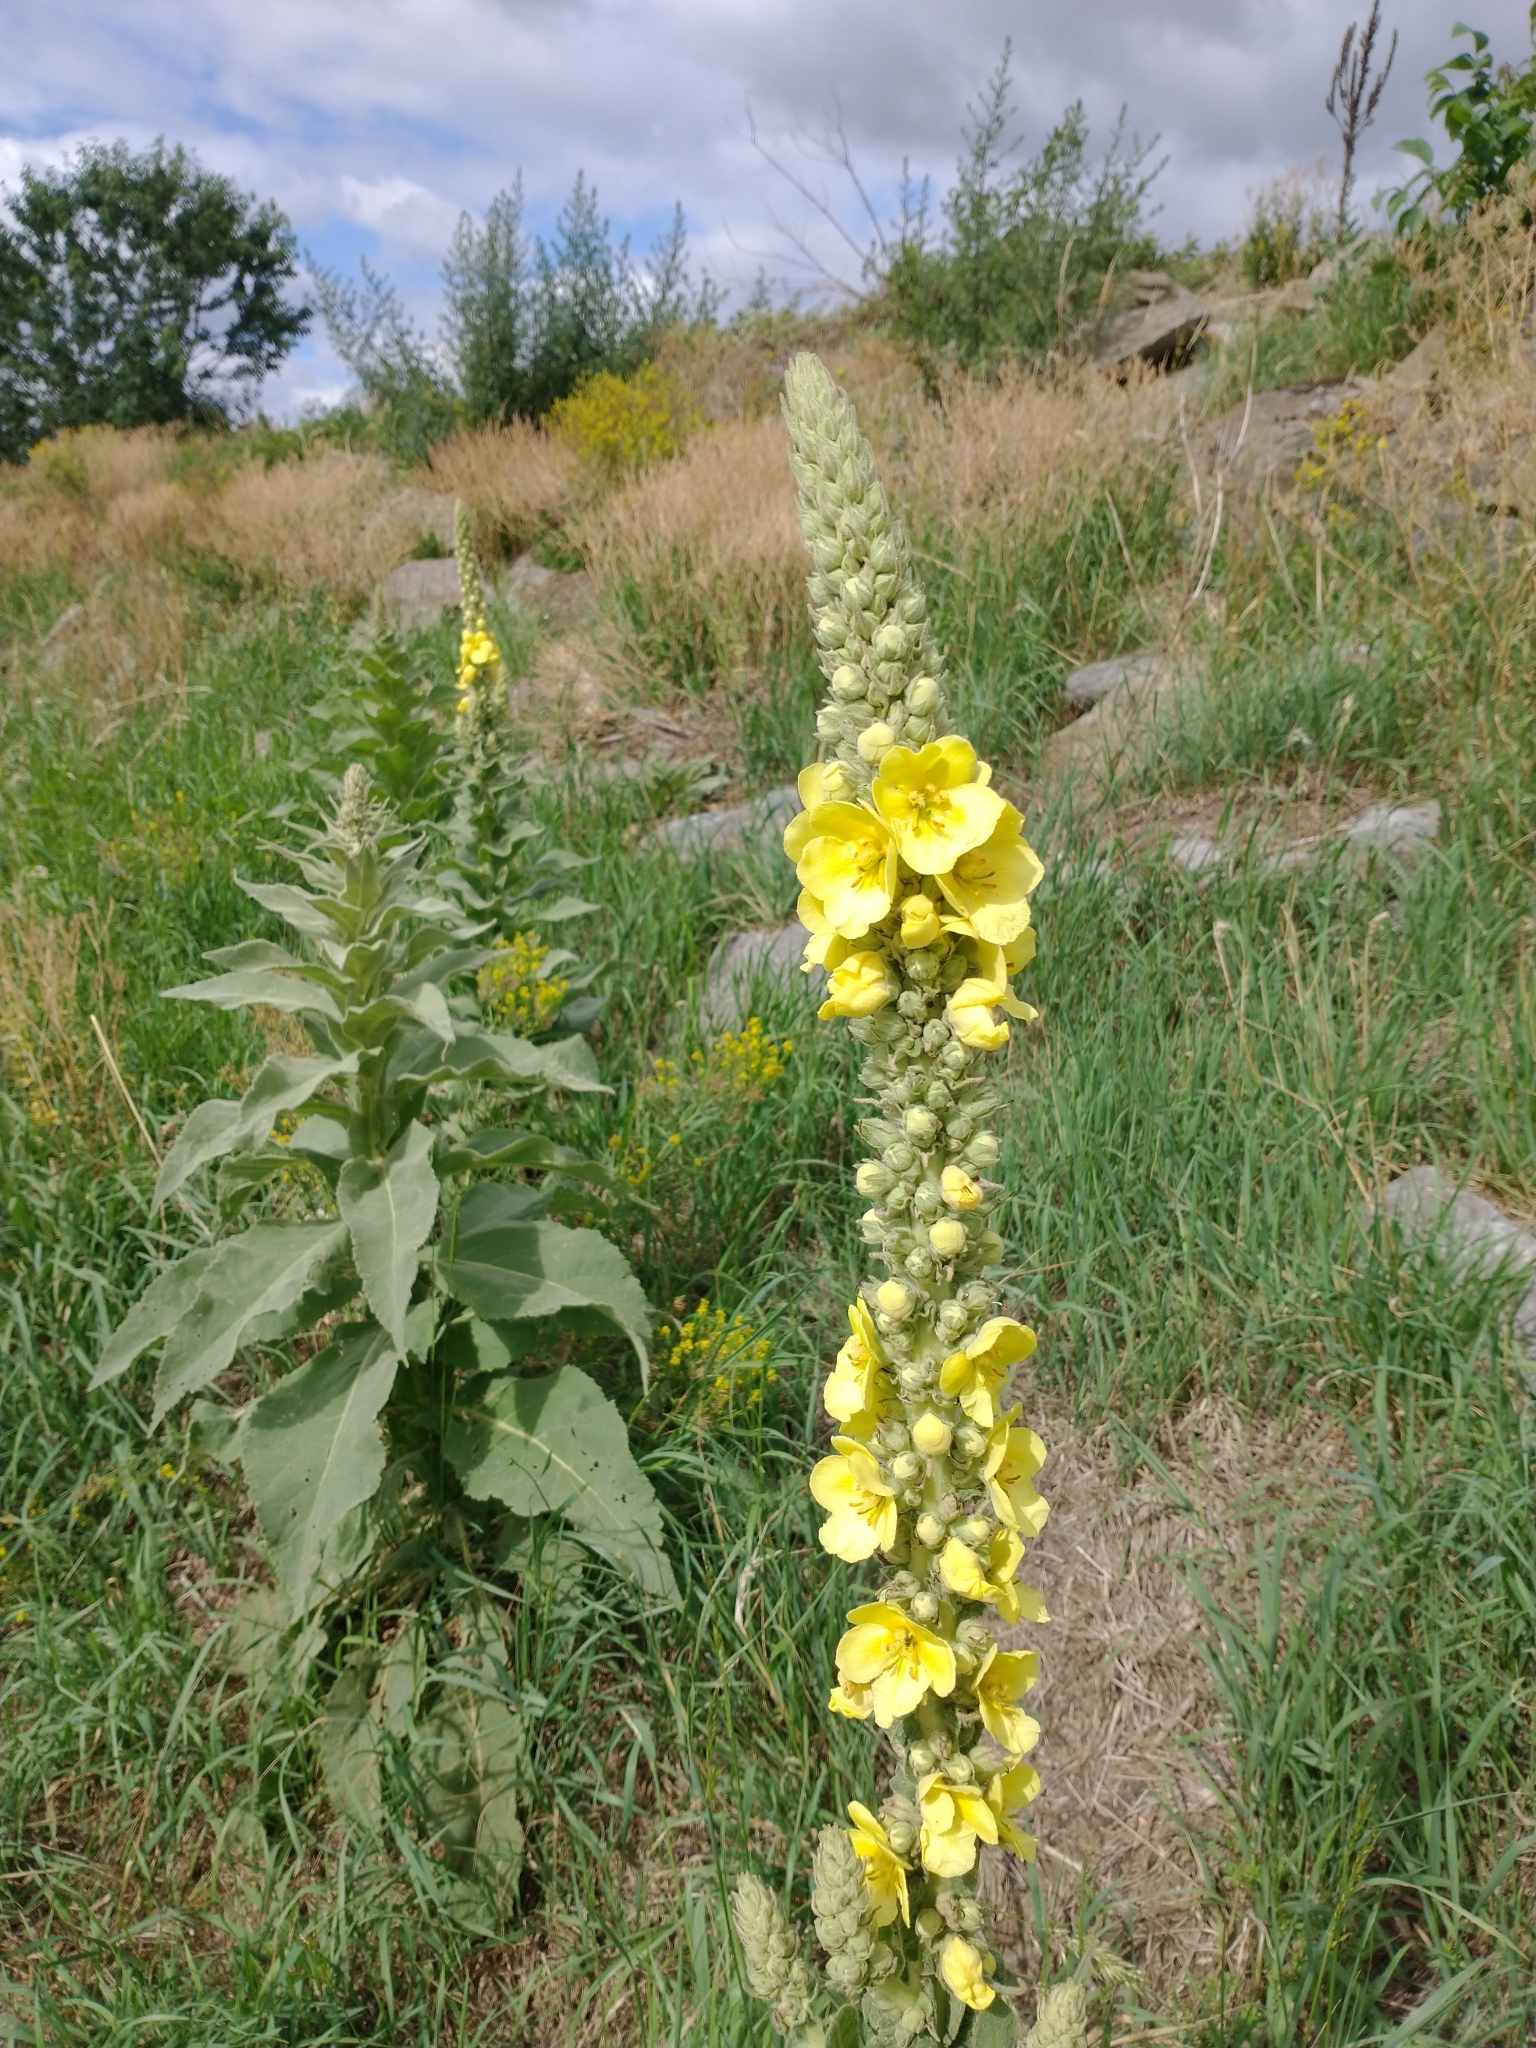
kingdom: Plantae
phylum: Tracheophyta
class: Magnoliopsida
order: Lamiales
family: Scrophulariaceae
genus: Verbascum
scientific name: Verbascum densiflorum
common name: Dense-flowered mullein
